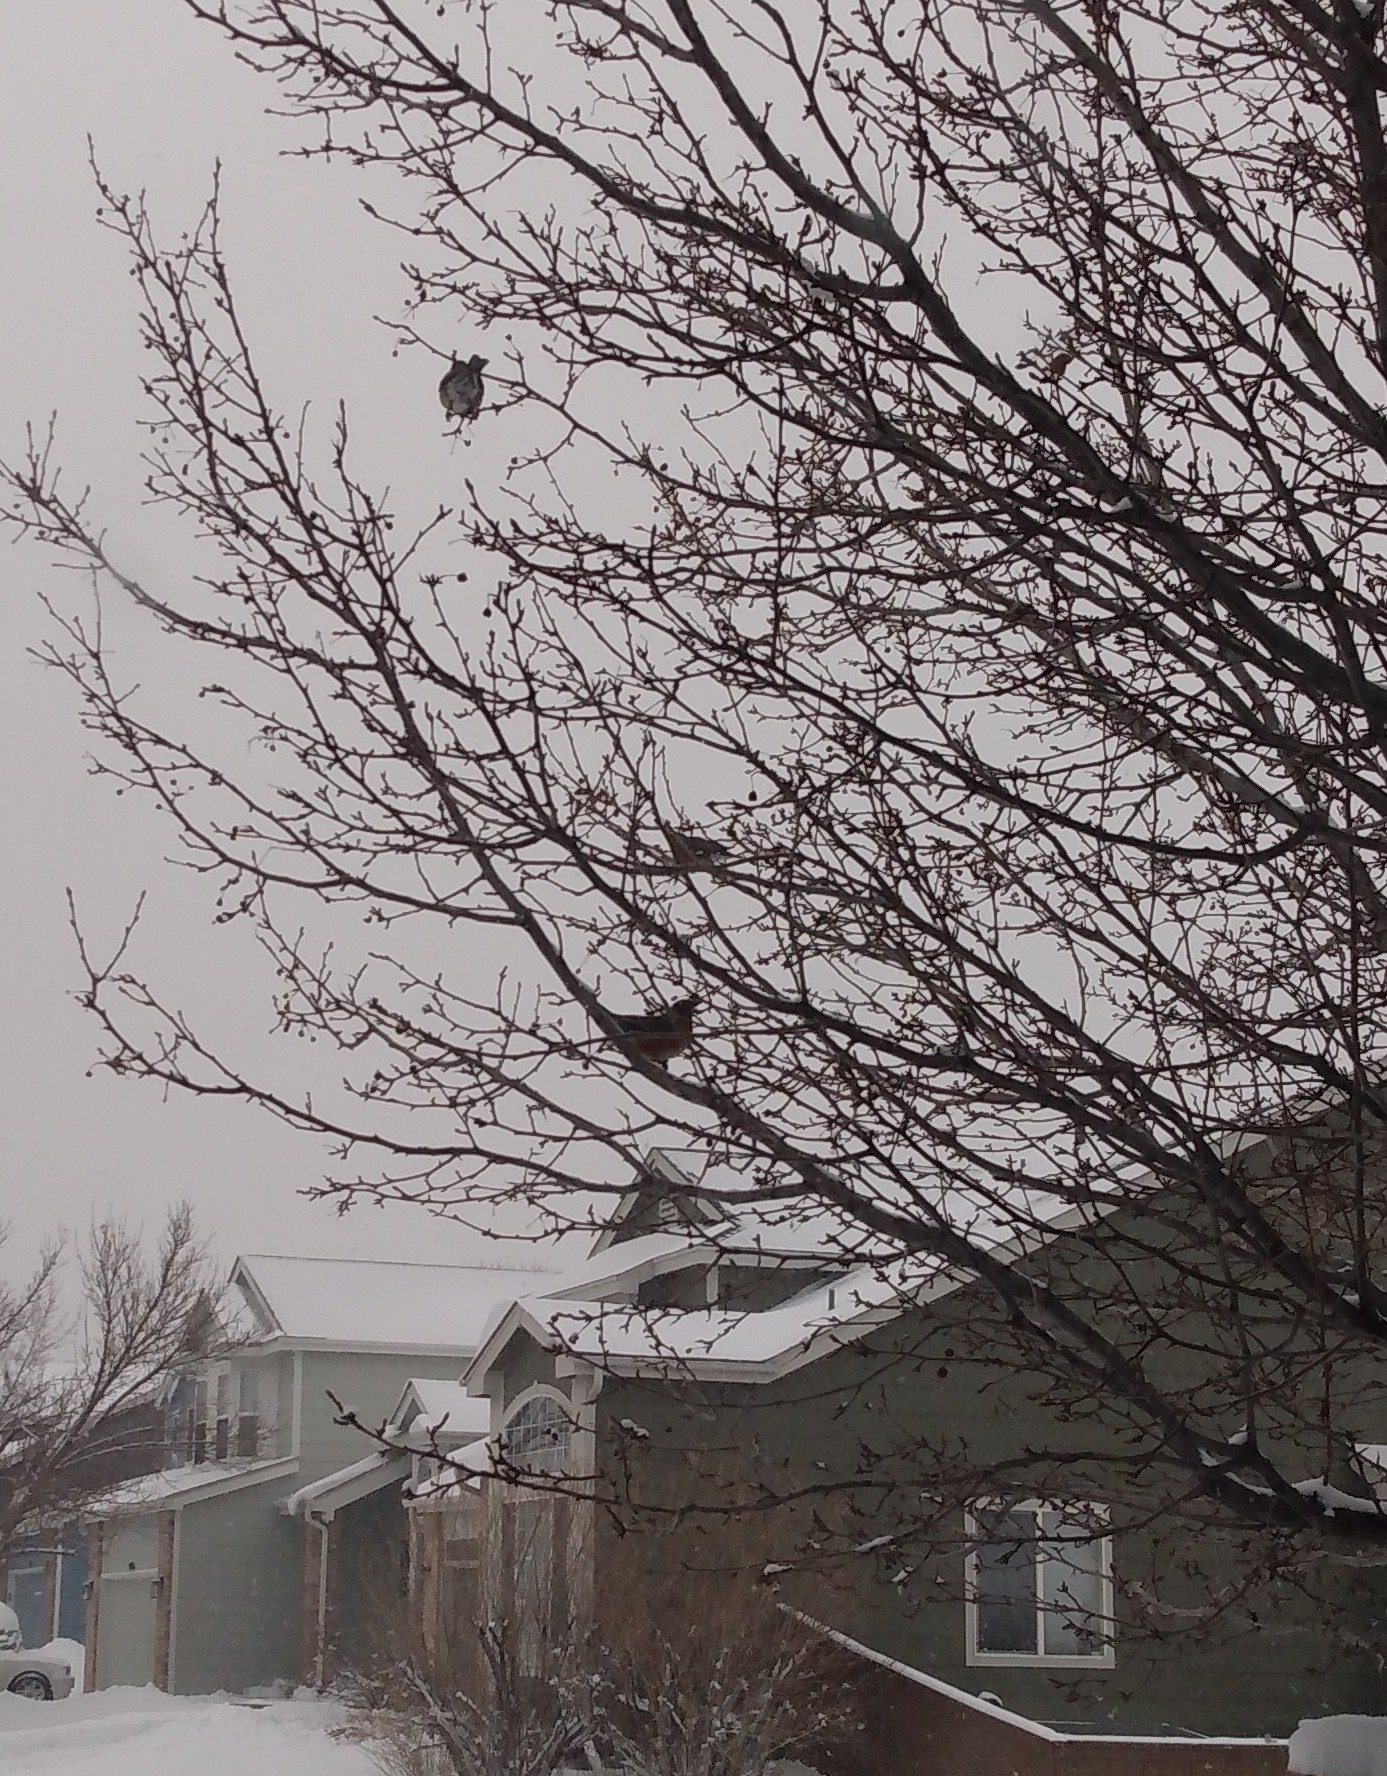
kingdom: Animalia
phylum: Chordata
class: Aves
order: Passeriformes
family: Turdidae
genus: Turdus
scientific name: Turdus migratorius
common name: American robin
